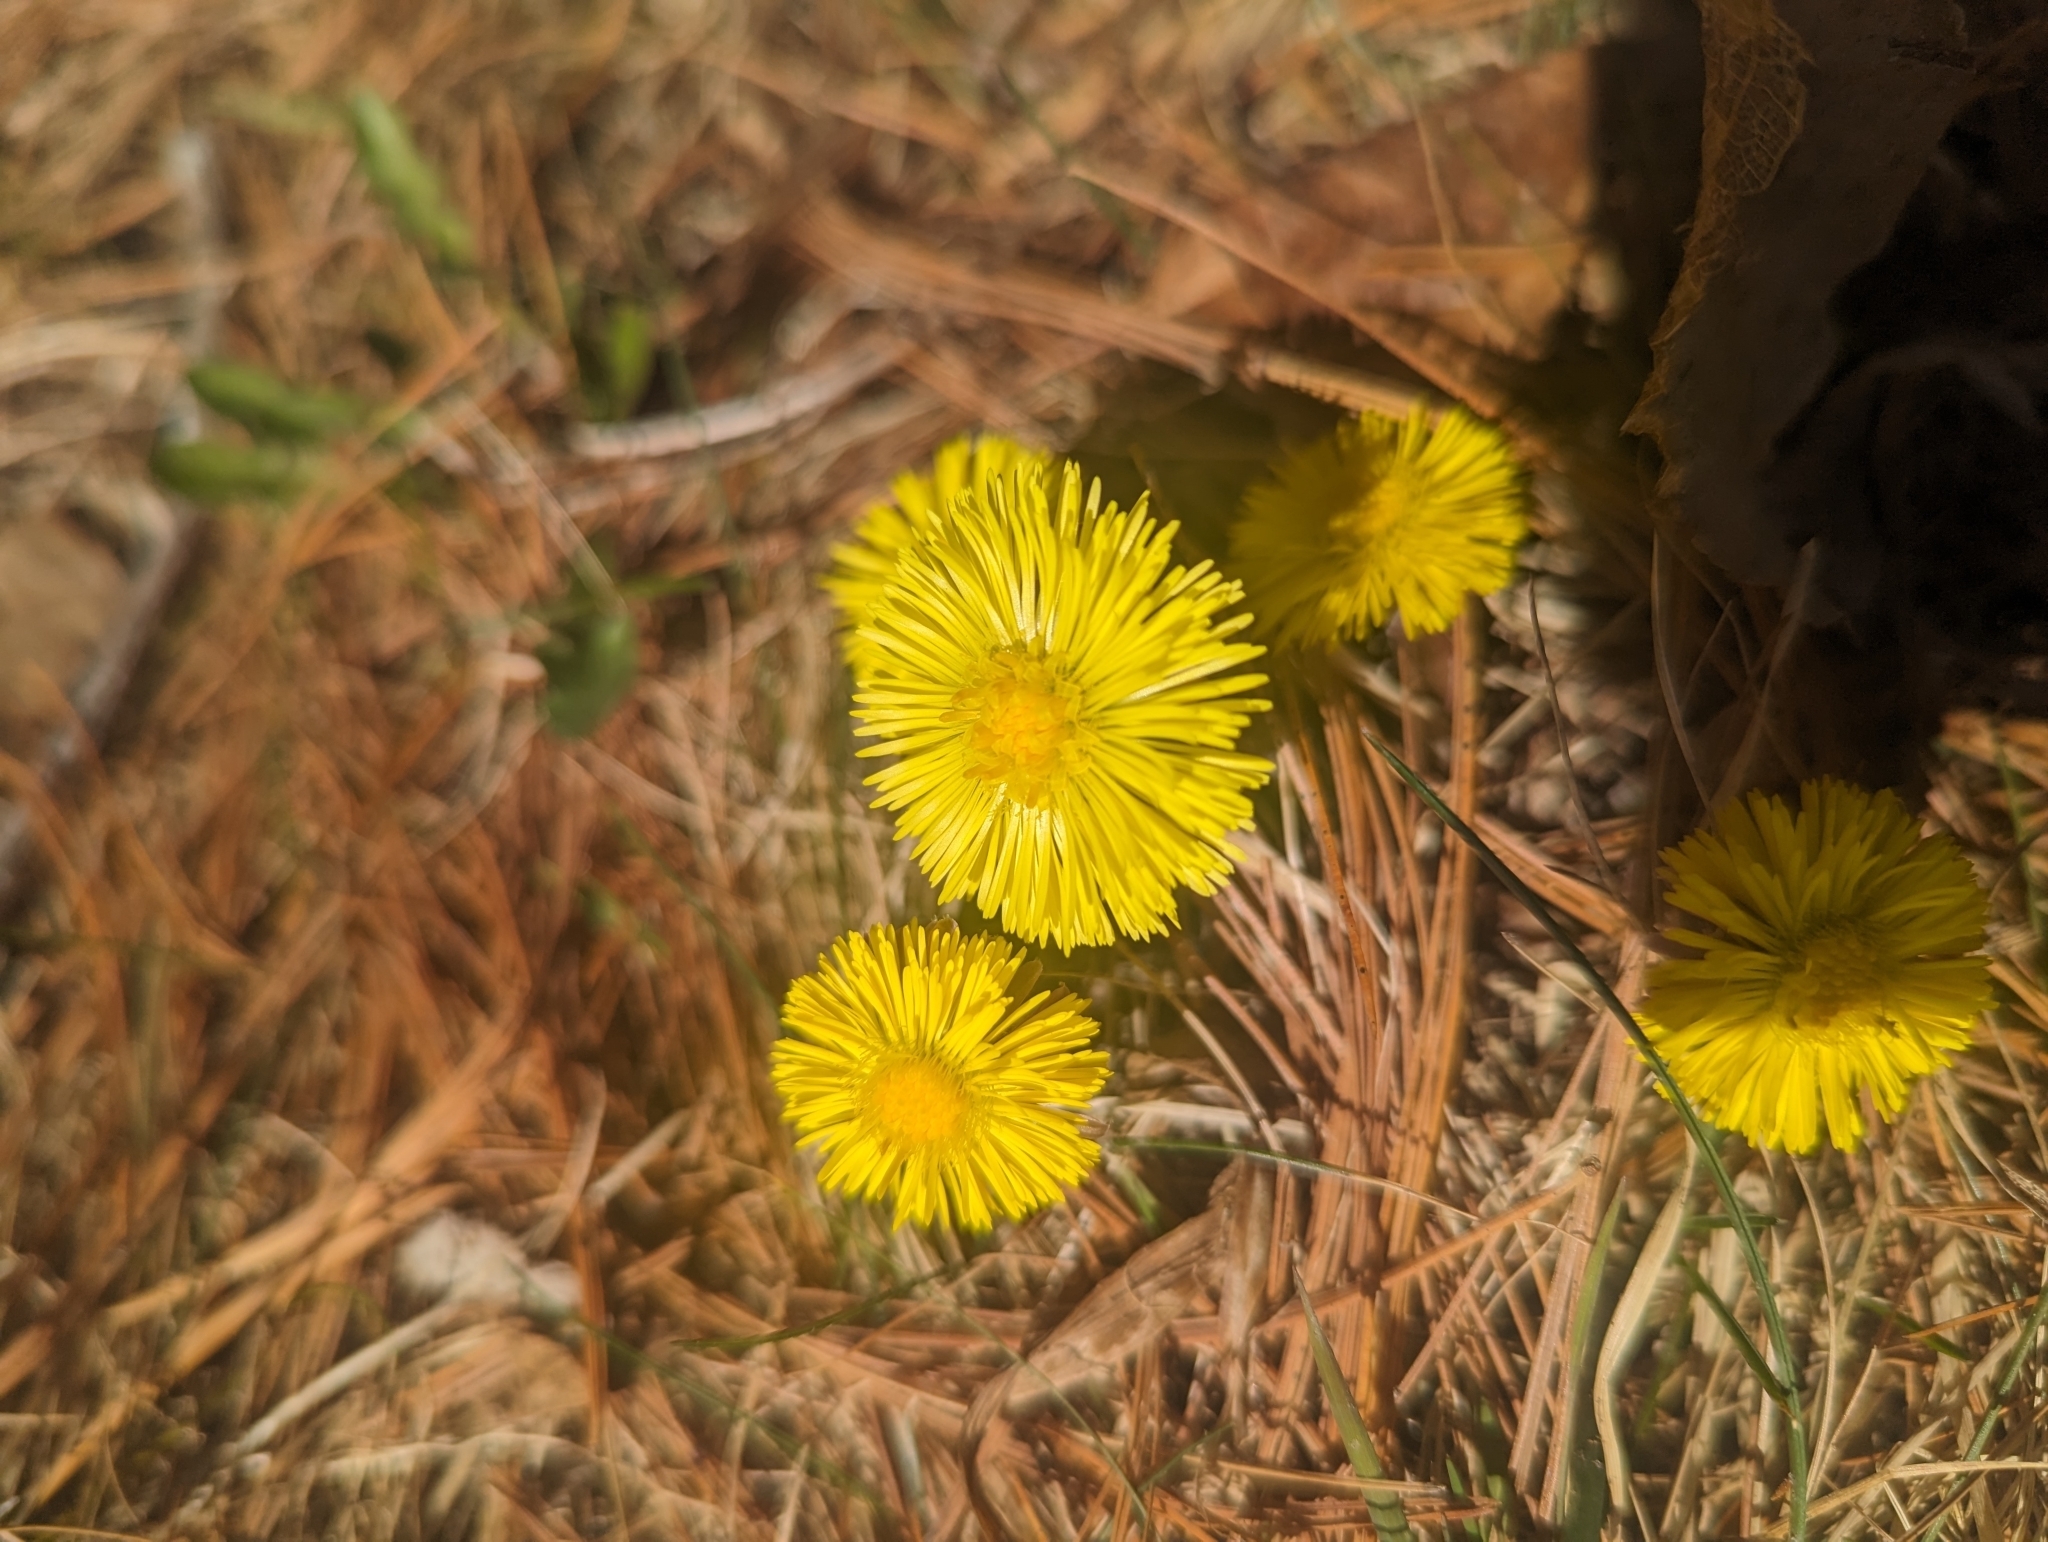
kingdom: Plantae
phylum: Tracheophyta
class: Magnoliopsida
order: Asterales
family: Asteraceae
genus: Tussilago
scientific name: Tussilago farfara
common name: Coltsfoot
